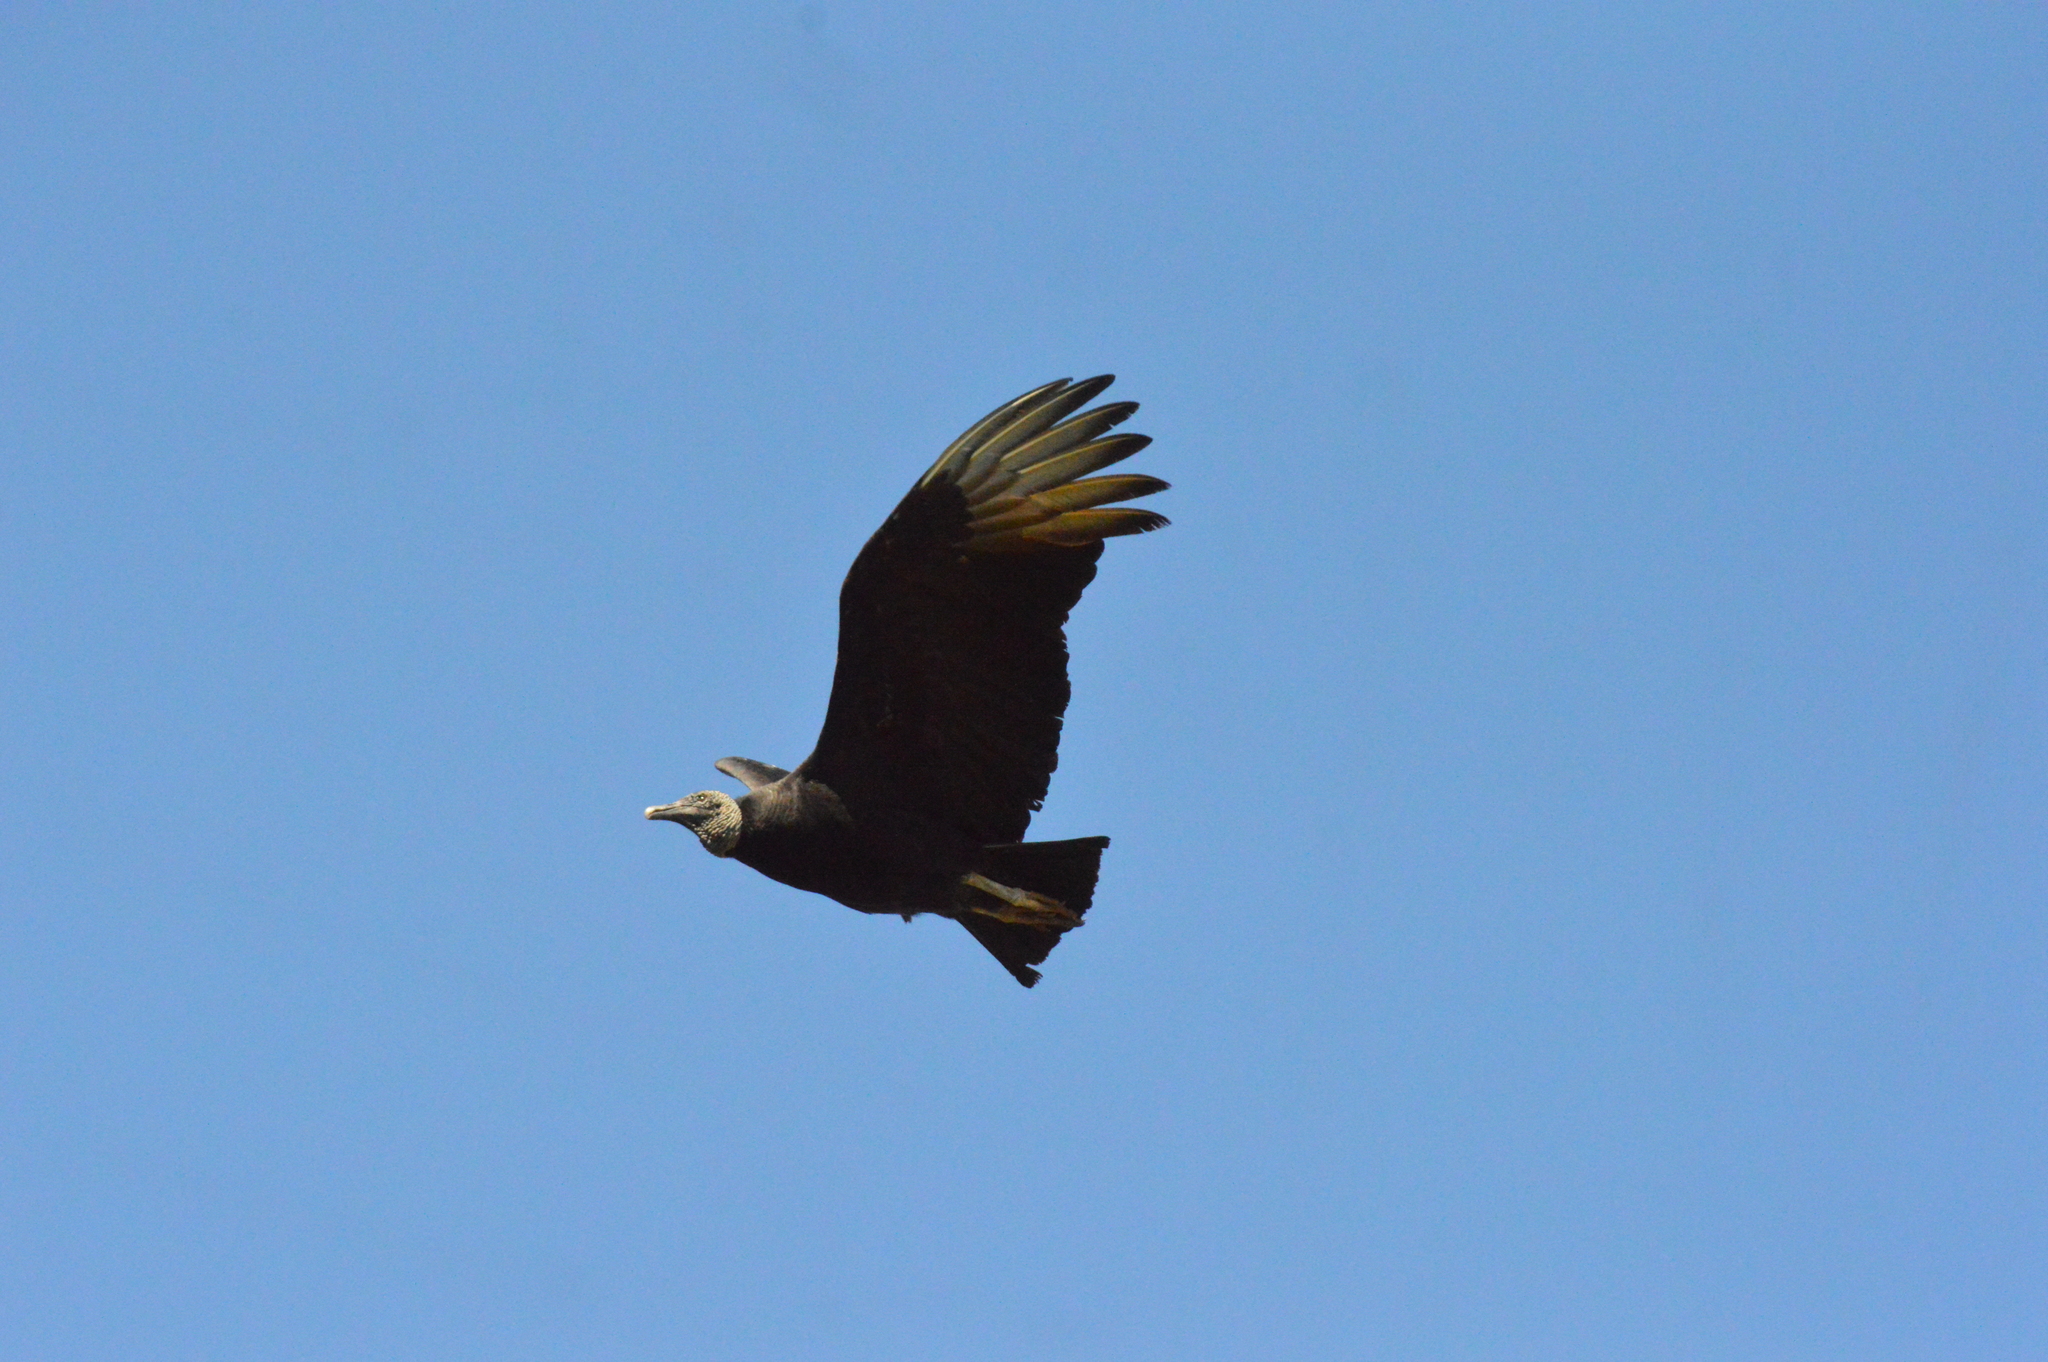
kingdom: Animalia
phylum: Chordata
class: Aves
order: Accipitriformes
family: Cathartidae
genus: Coragyps
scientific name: Coragyps atratus
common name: Black vulture
